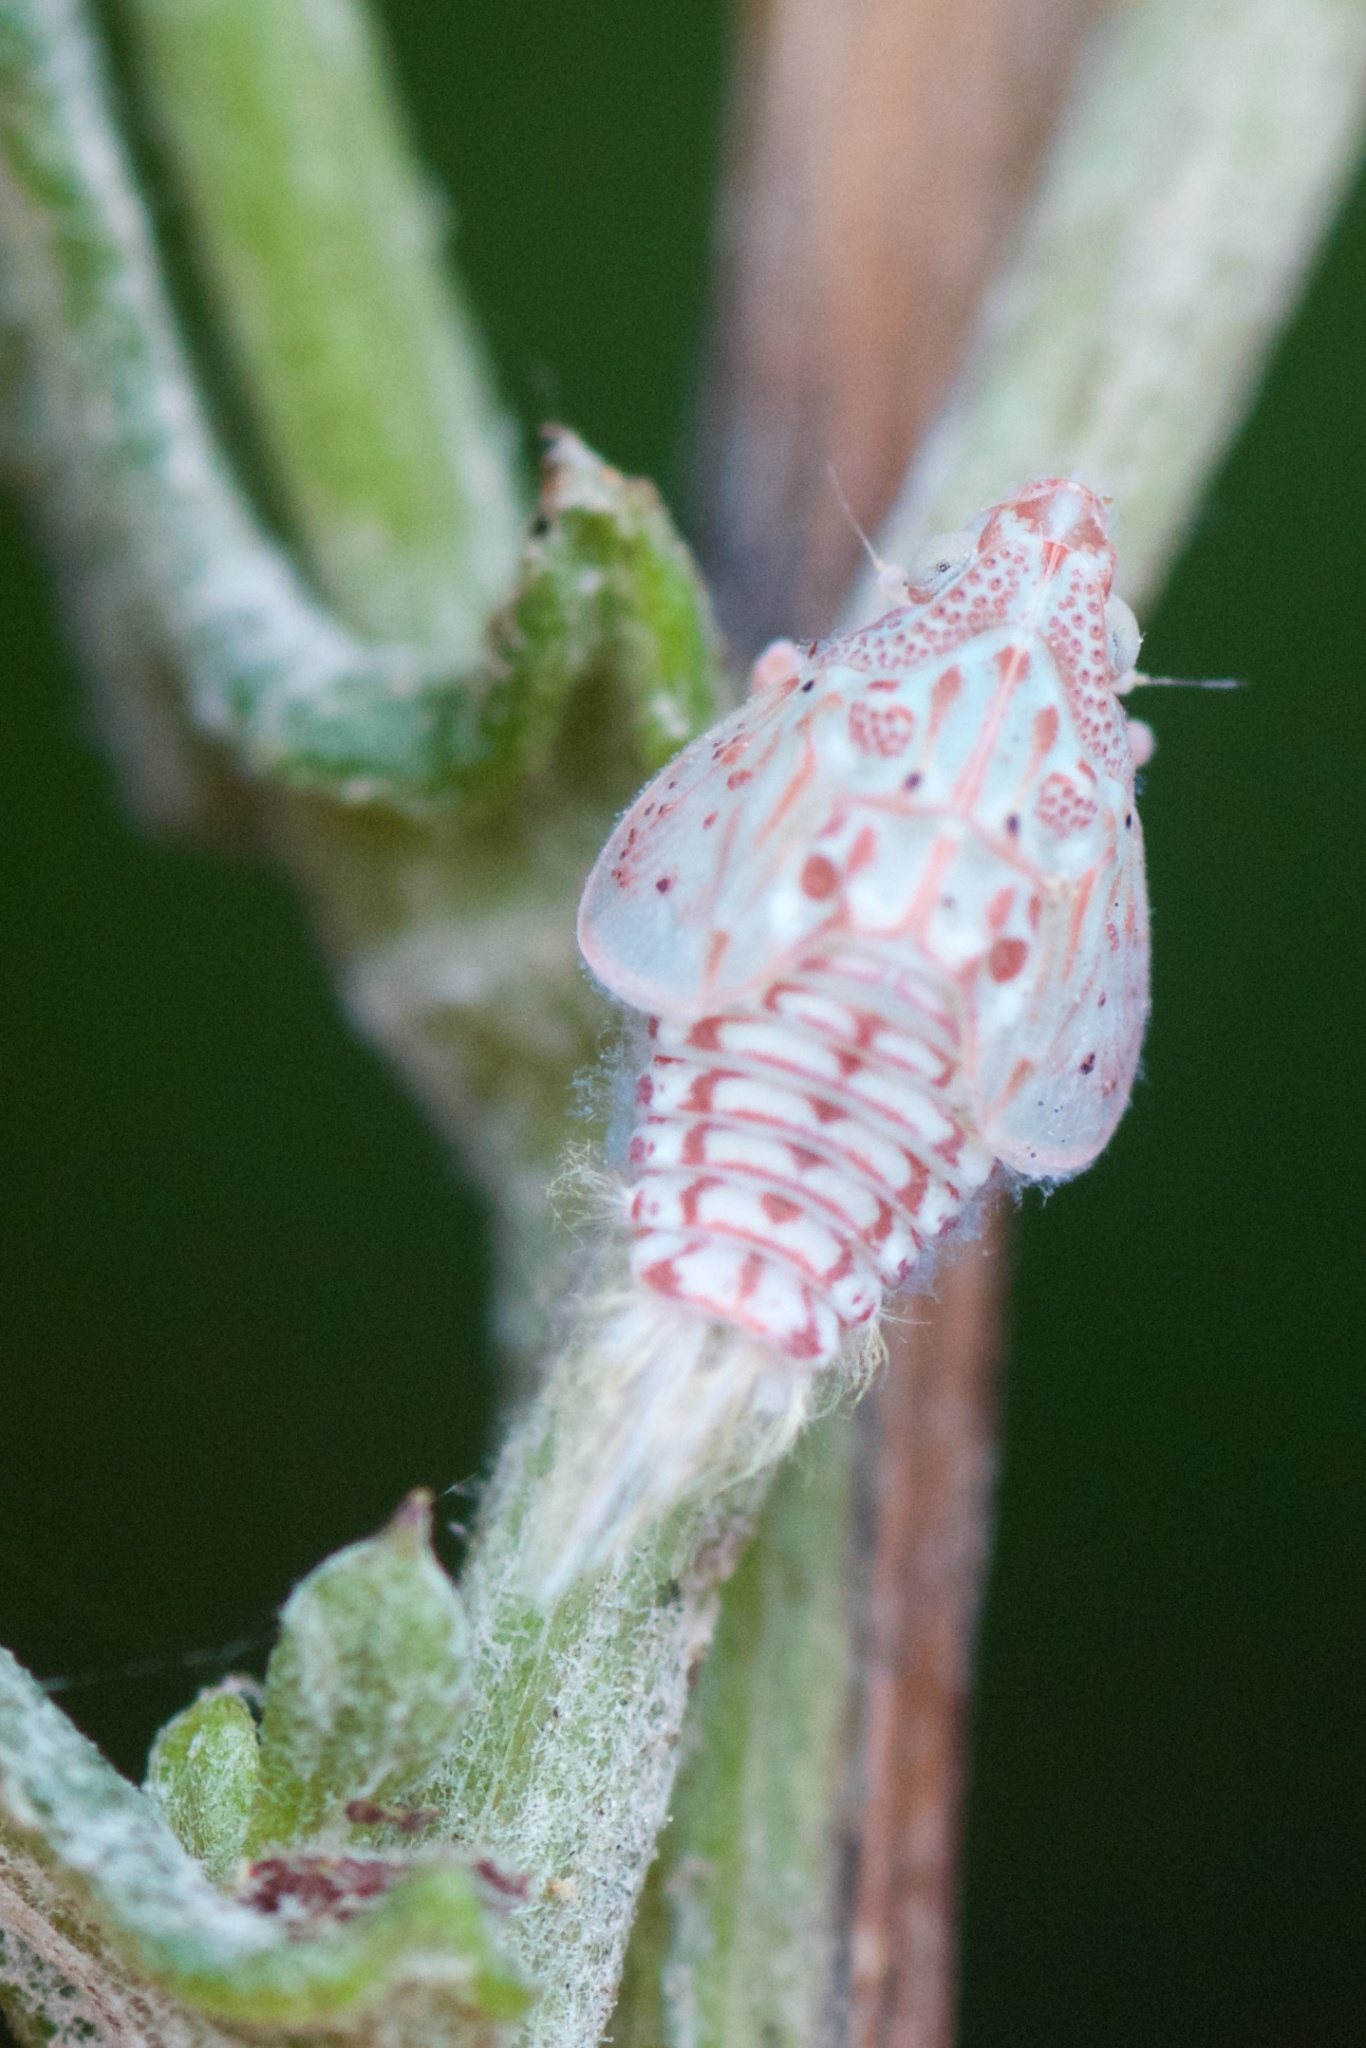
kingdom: Animalia
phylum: Arthropoda
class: Insecta
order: Hemiptera
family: Flatidae
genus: Siphanta
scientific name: Siphanta acuta
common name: Torpedo bug
